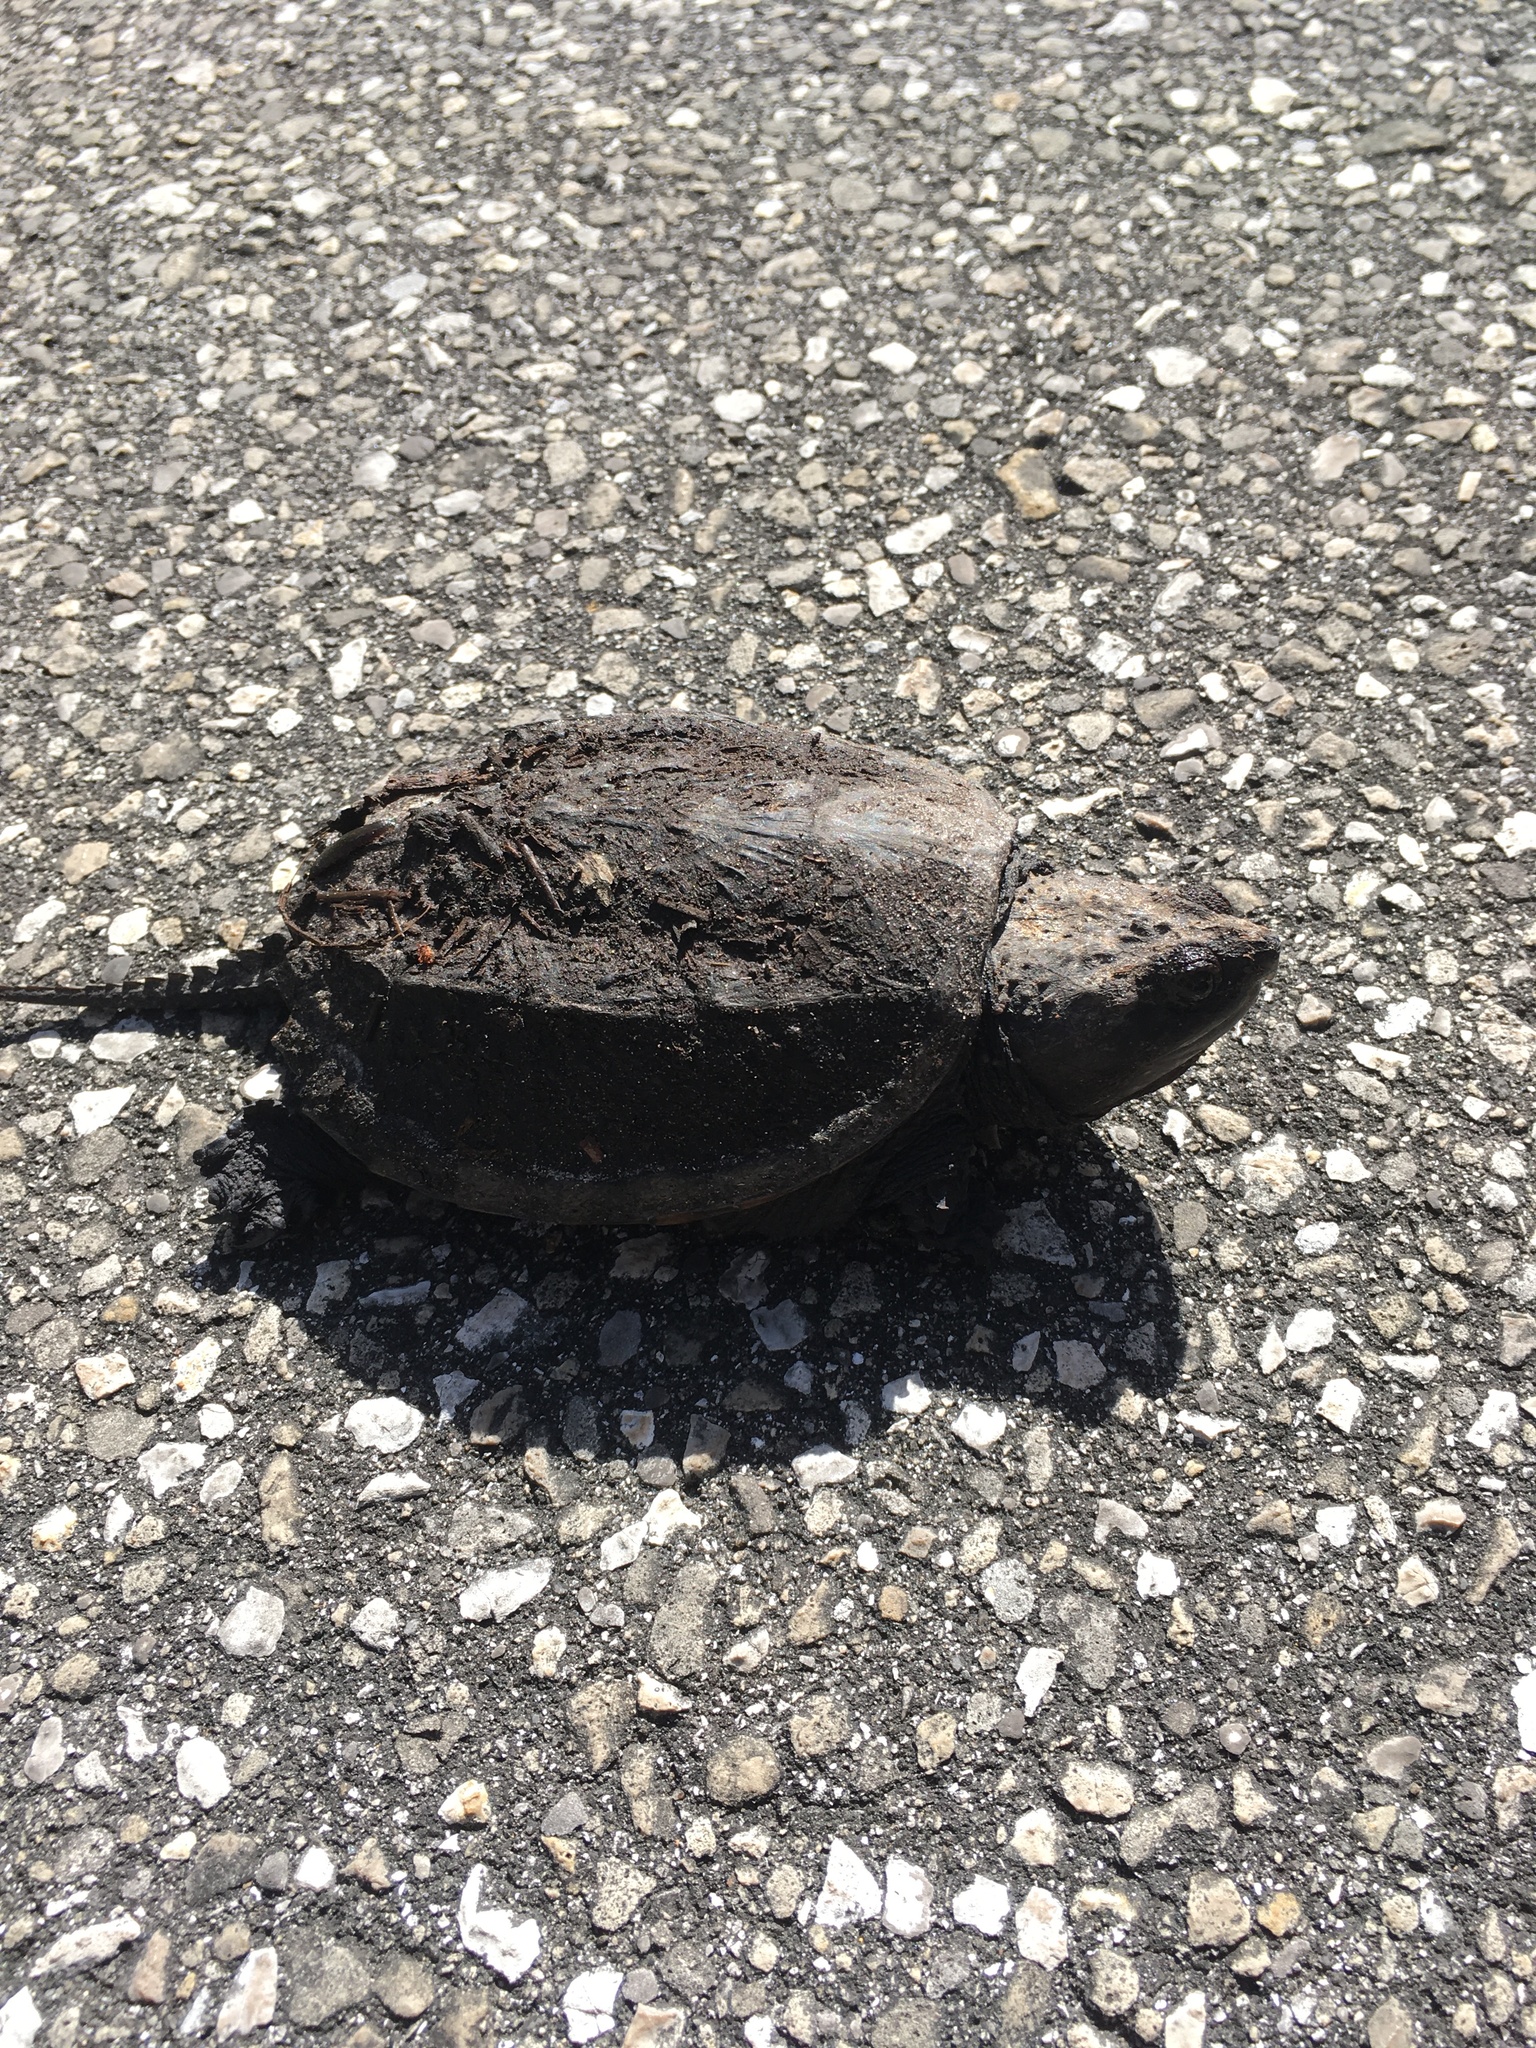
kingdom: Animalia
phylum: Chordata
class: Testudines
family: Chelydridae
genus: Chelydra
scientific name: Chelydra serpentina
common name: Common snapping turtle
